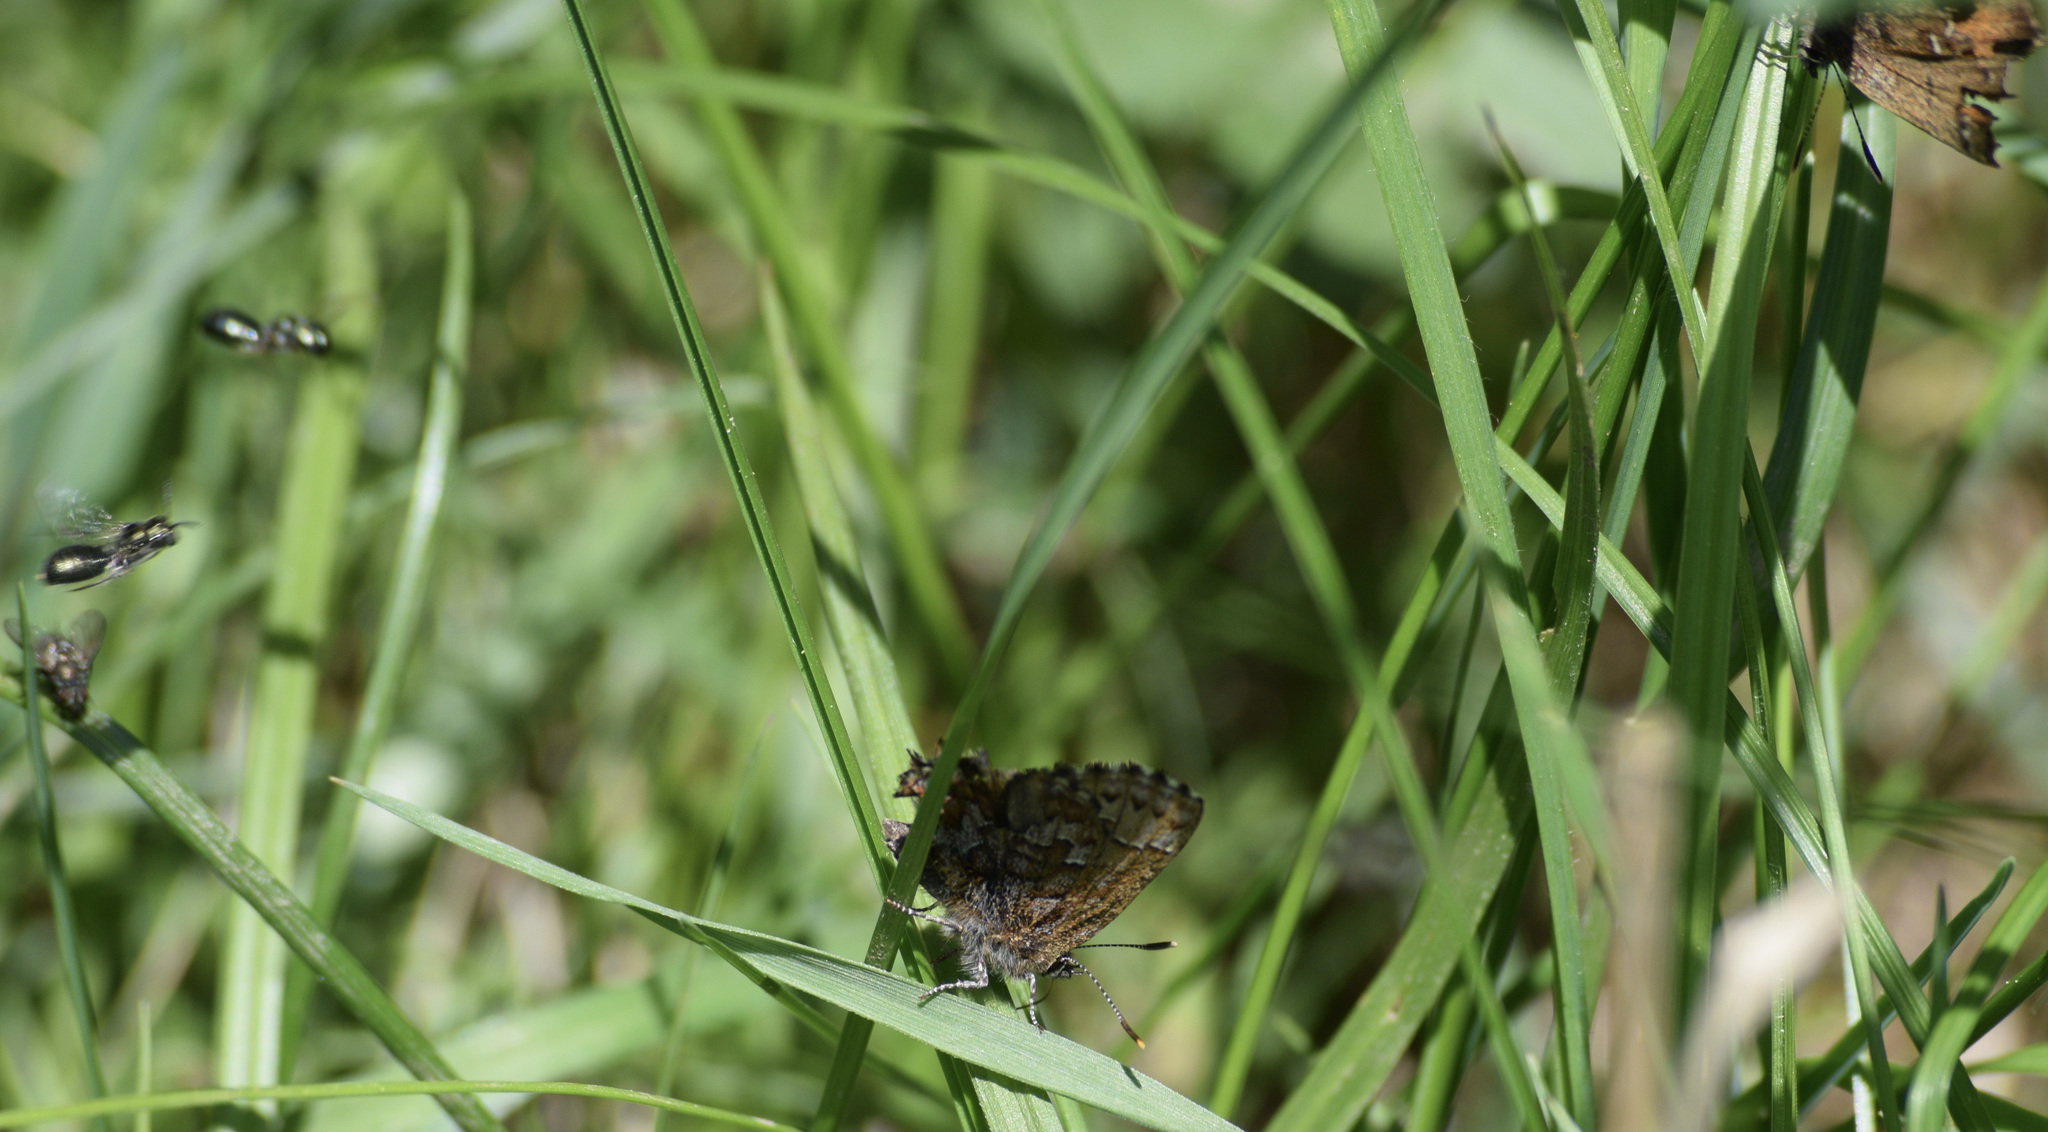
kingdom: Animalia
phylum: Arthropoda
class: Insecta
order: Lepidoptera
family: Lycaenidae
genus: Incisalia
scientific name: Incisalia niphon
